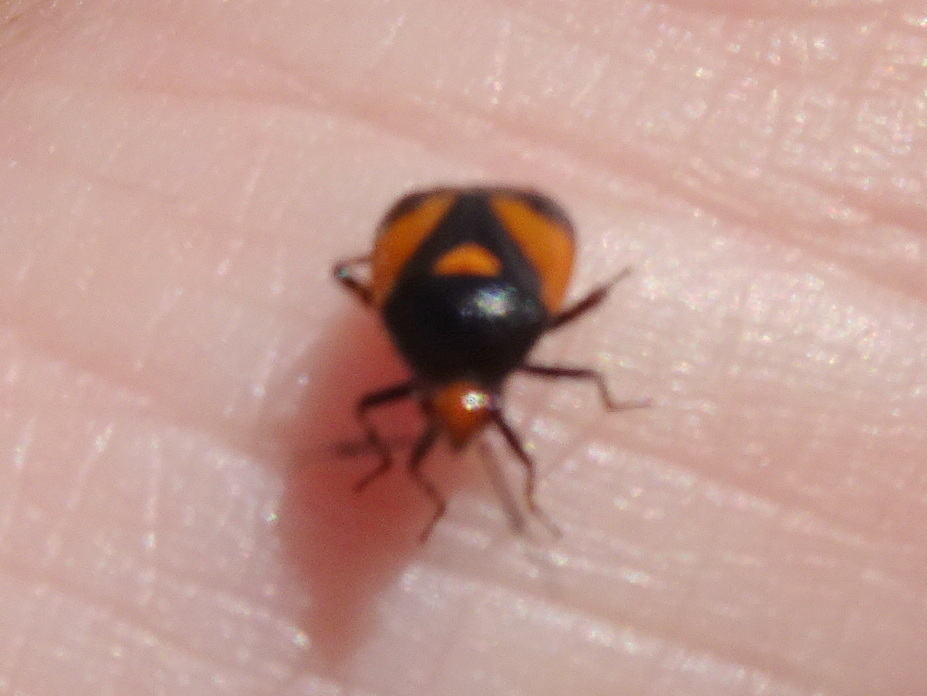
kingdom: Animalia
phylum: Arthropoda
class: Insecta
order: Hemiptera
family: Miridae
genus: Deraeocoris
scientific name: Deraeocoris schach
